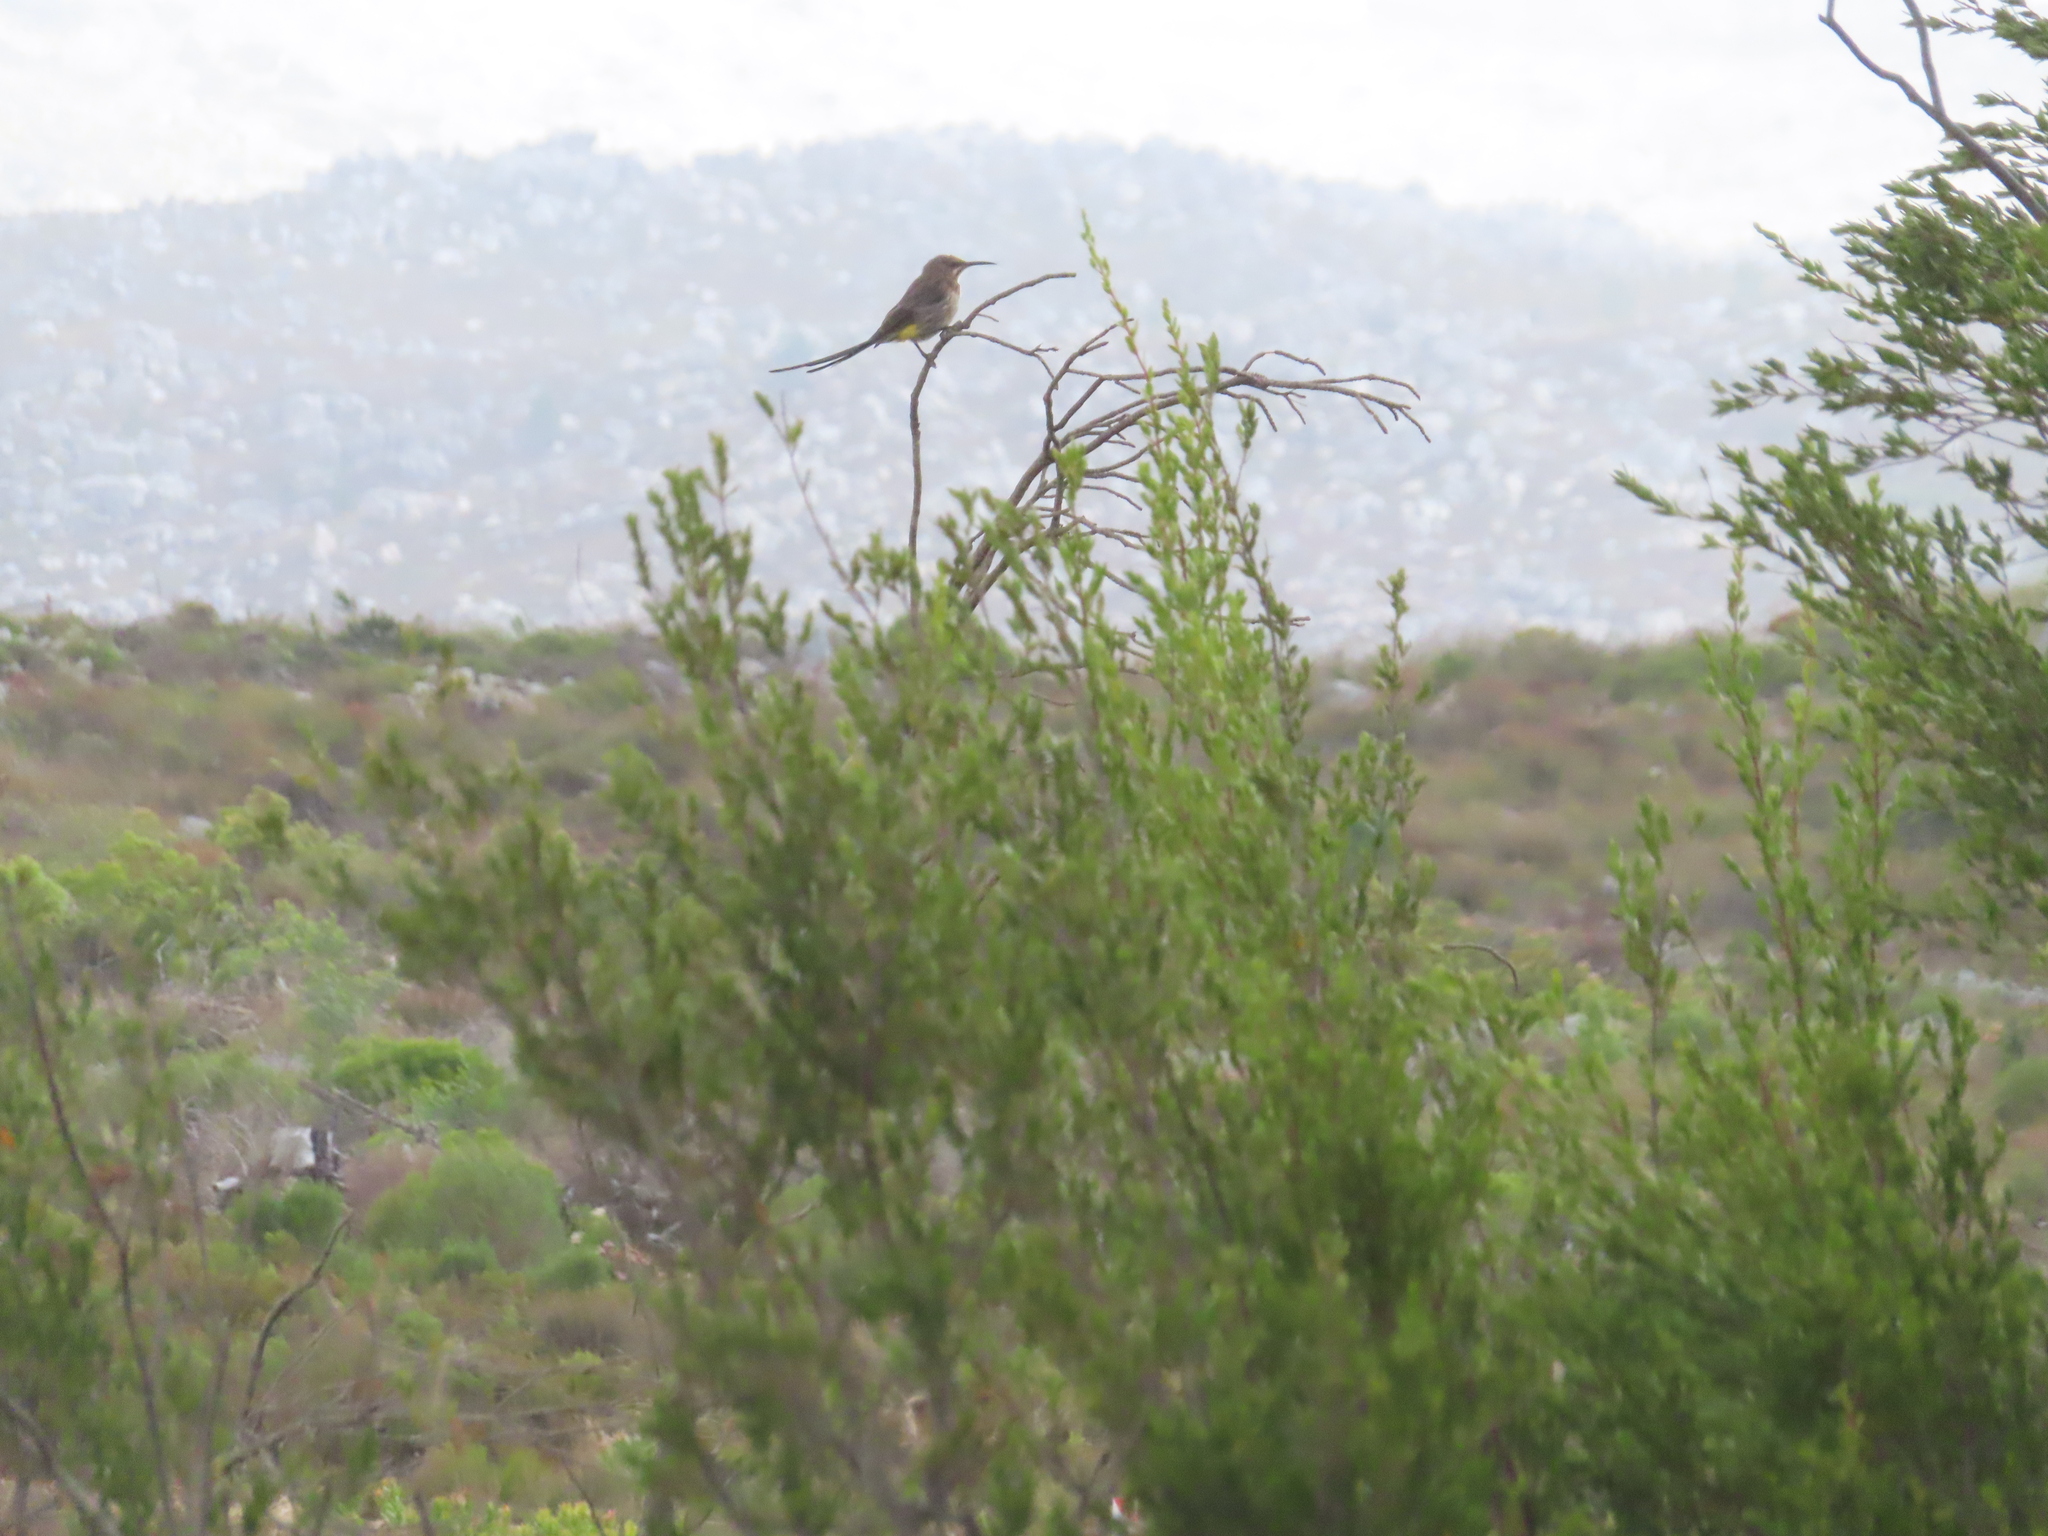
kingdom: Animalia
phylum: Chordata
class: Aves
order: Passeriformes
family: Promeropidae
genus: Promerops
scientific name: Promerops cafer
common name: Cape sugarbird
